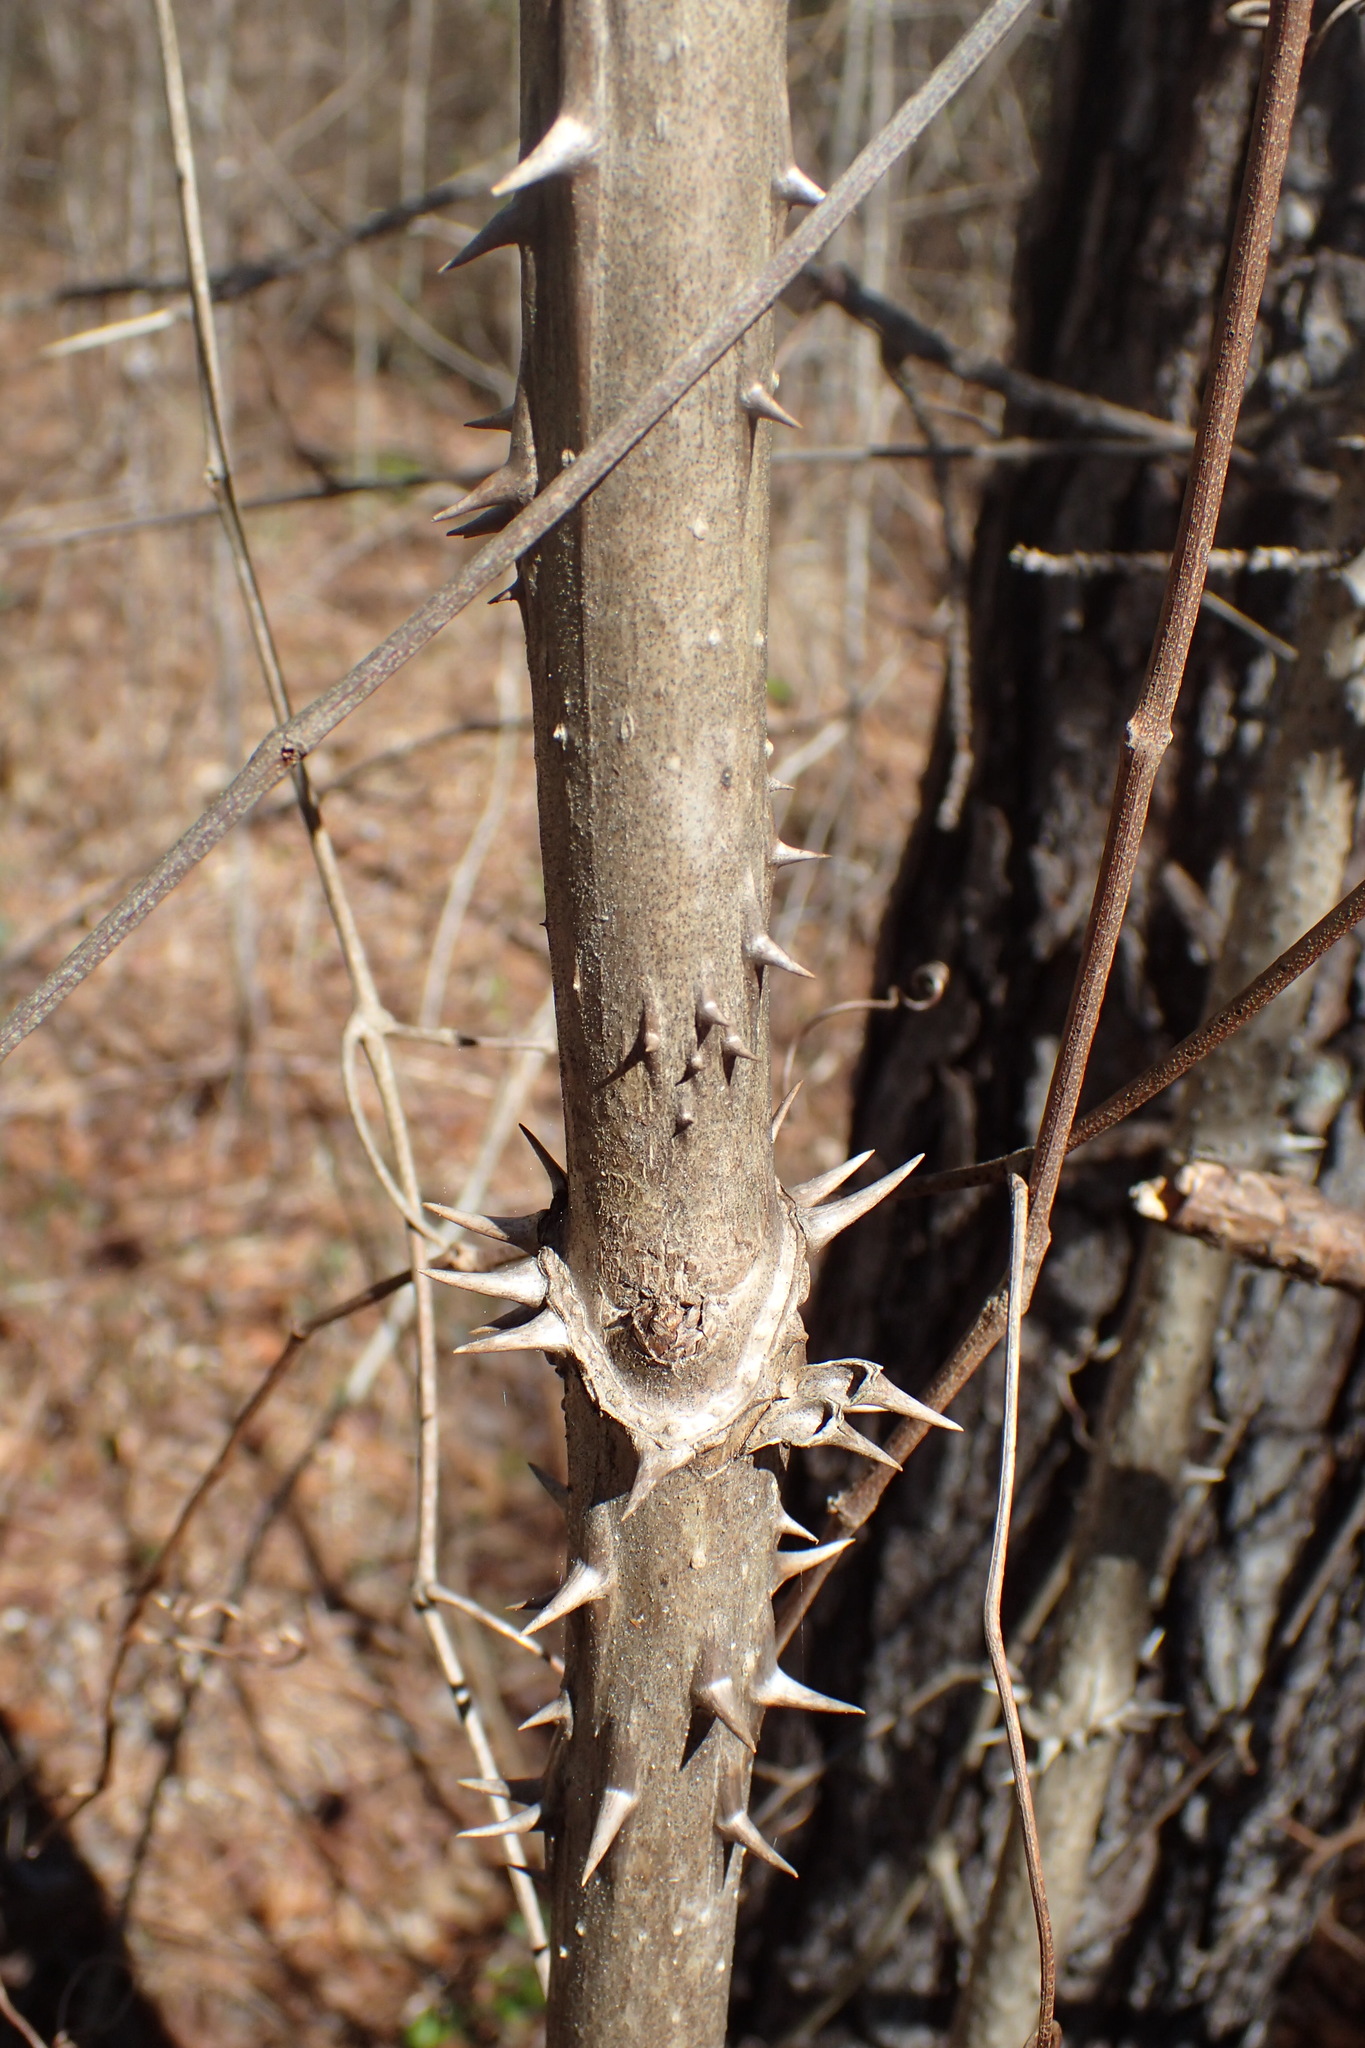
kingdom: Plantae
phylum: Tracheophyta
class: Magnoliopsida
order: Apiales
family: Araliaceae
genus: Aralia
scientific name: Aralia spinosa
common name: Hercules'-club
